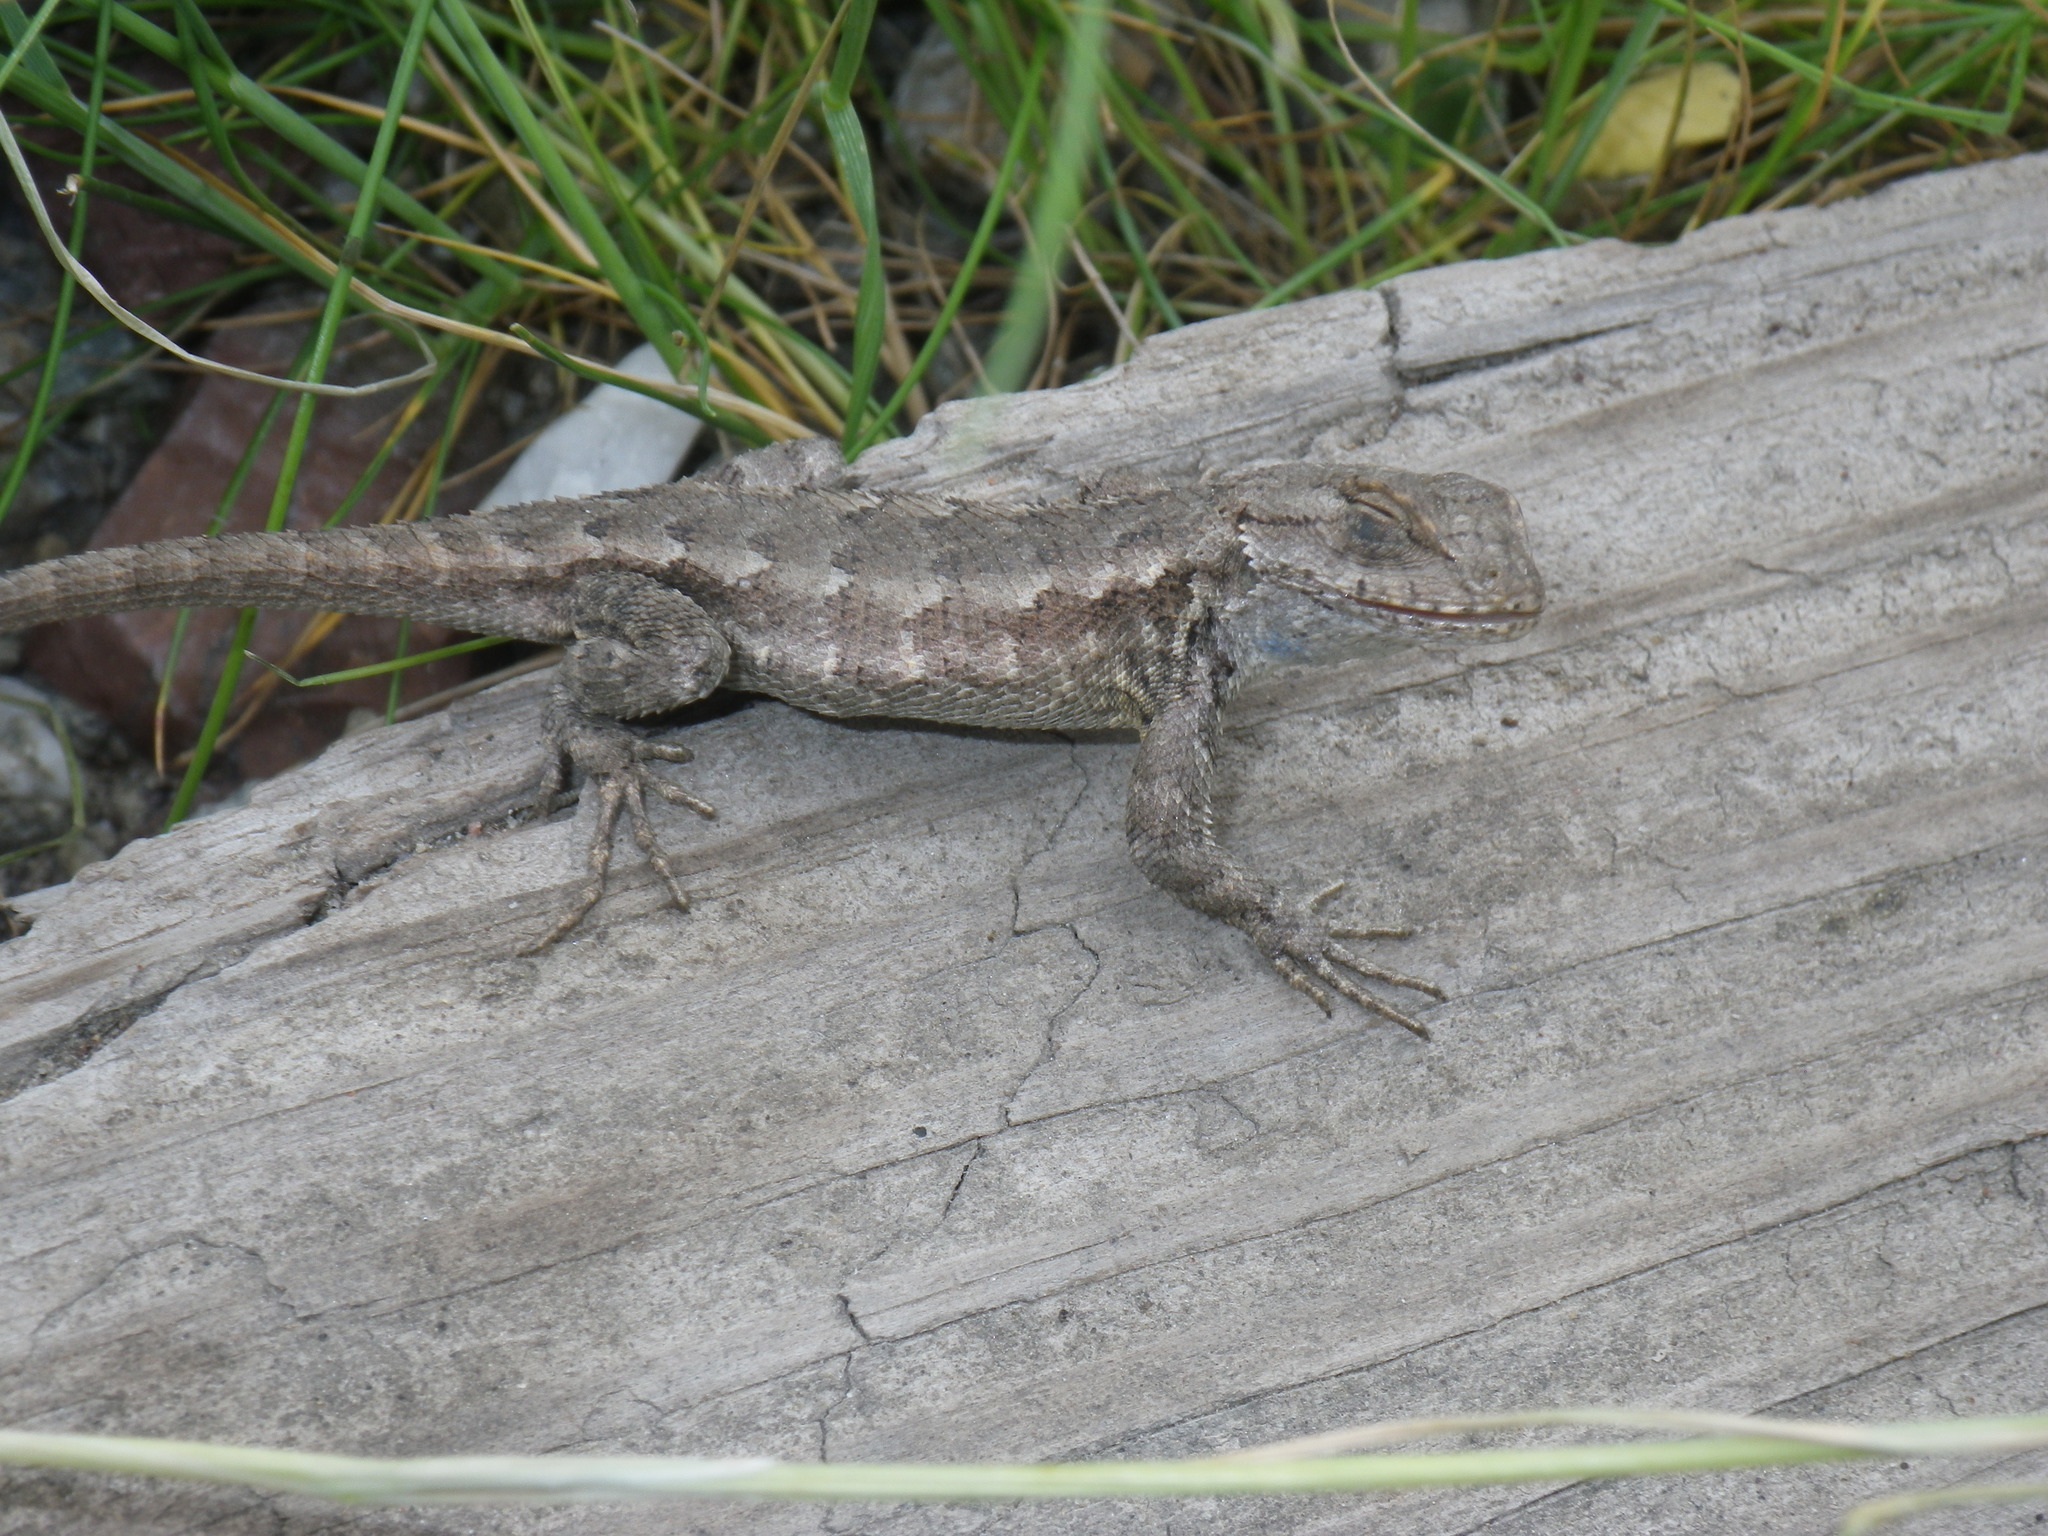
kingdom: Animalia
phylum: Chordata
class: Squamata
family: Phrynosomatidae
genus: Sceloporus
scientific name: Sceloporus occidentalis
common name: Western fence lizard
